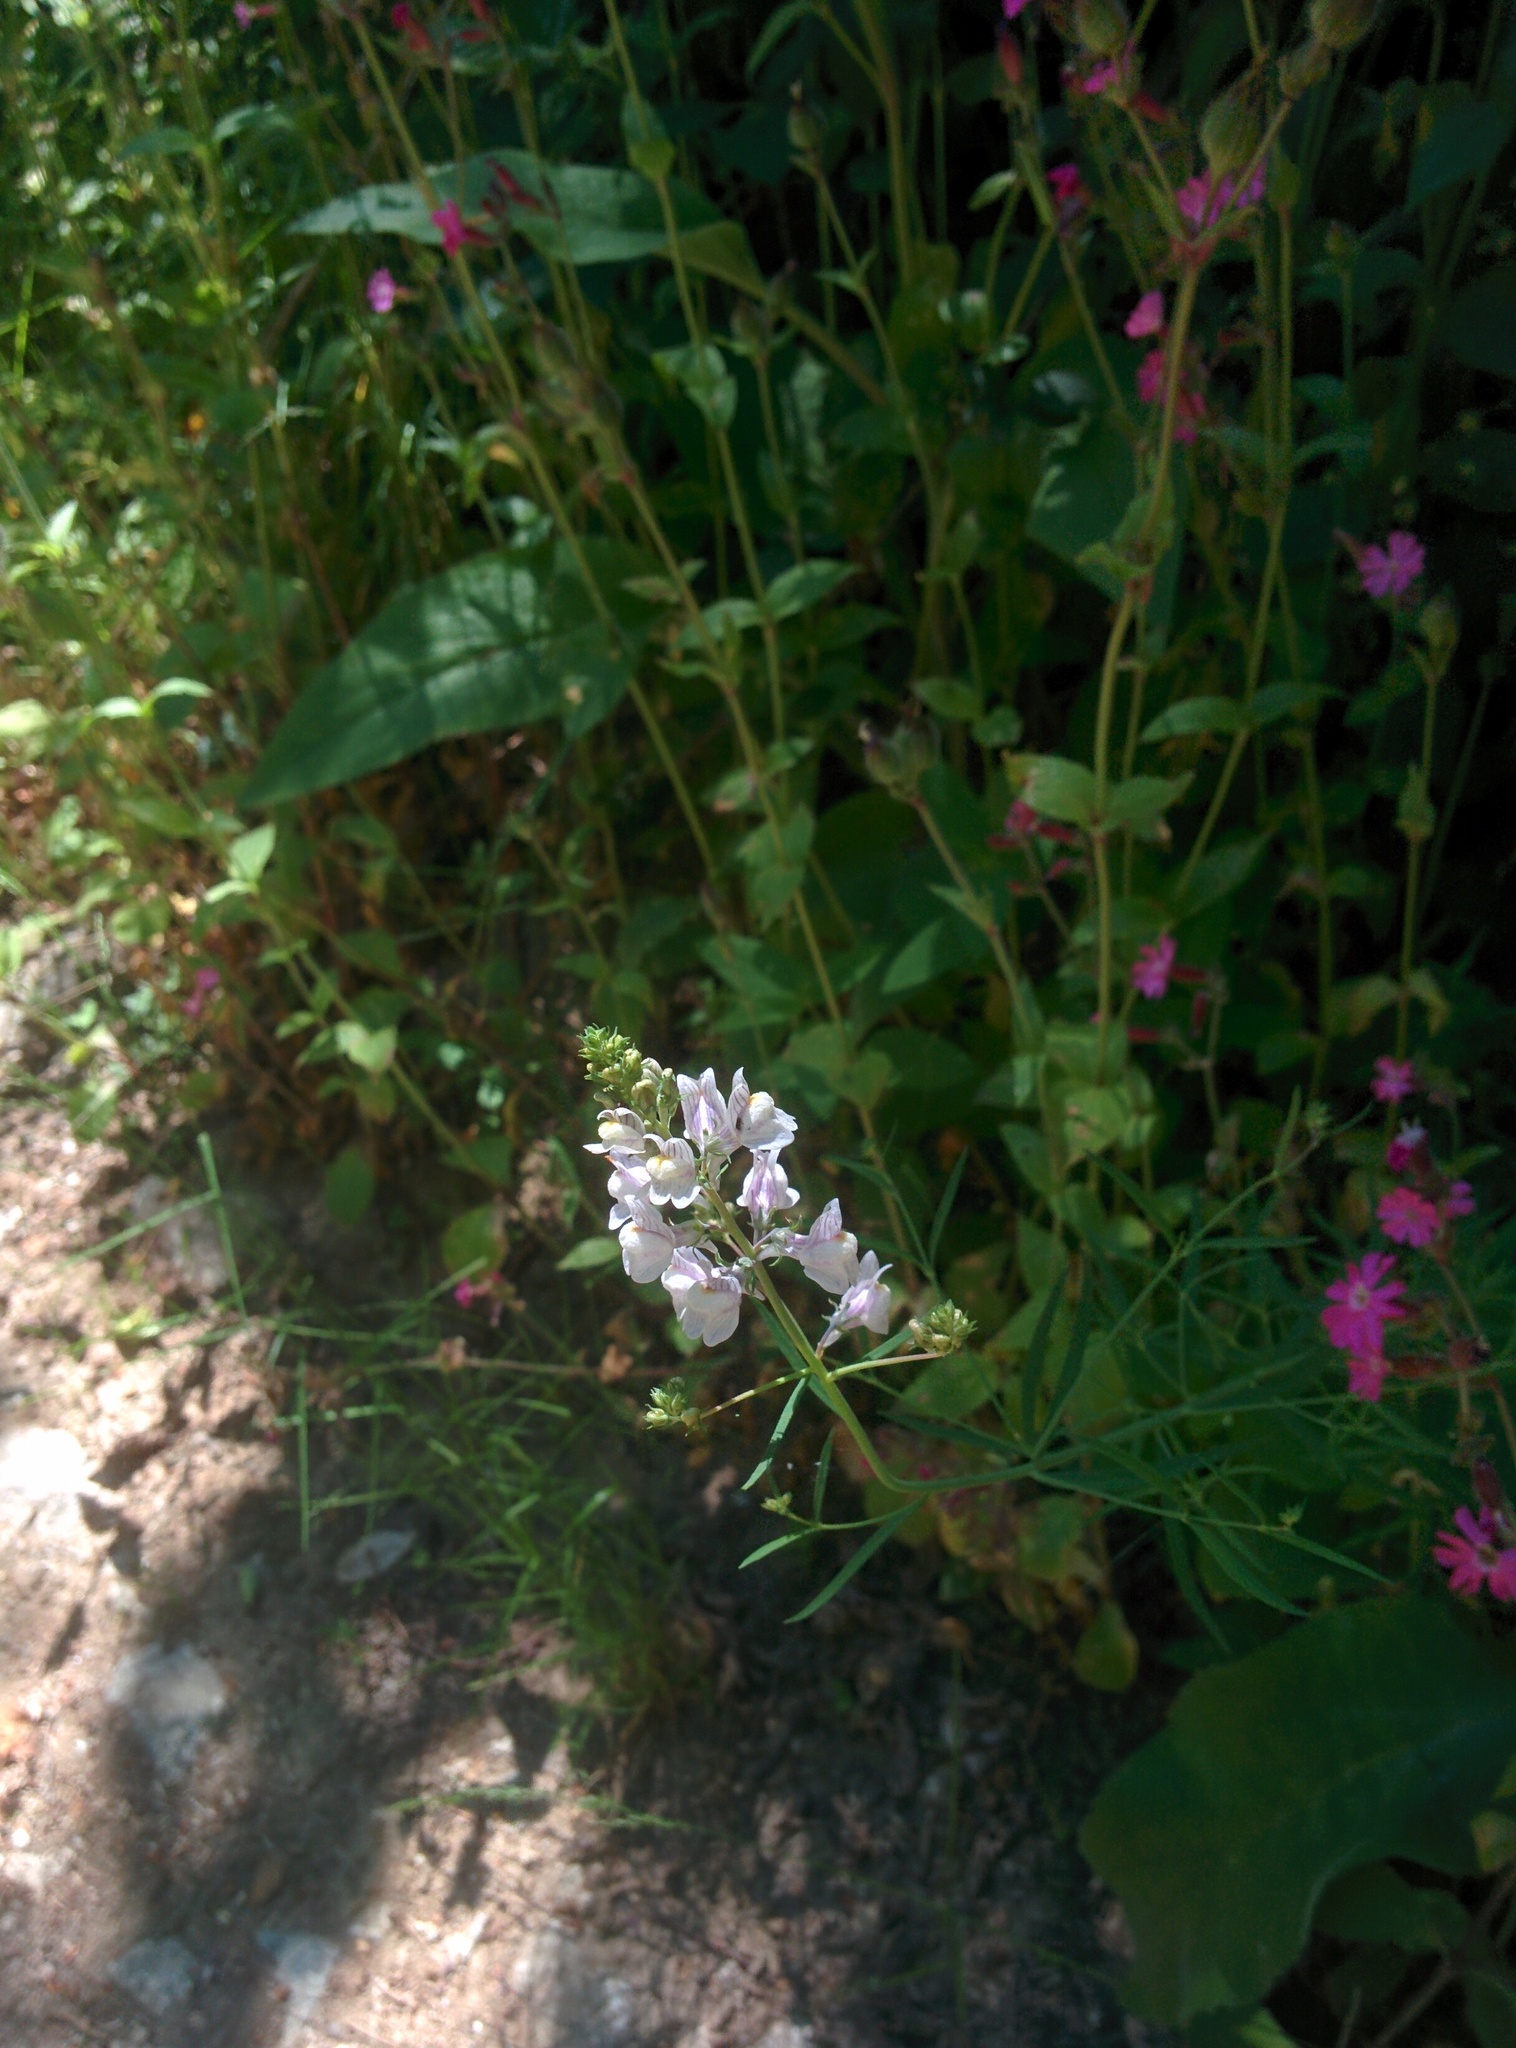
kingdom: Plantae
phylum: Tracheophyta
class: Magnoliopsida
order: Lamiales
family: Plantaginaceae
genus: Linaria
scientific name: Linaria repens
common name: Pale toadflax
